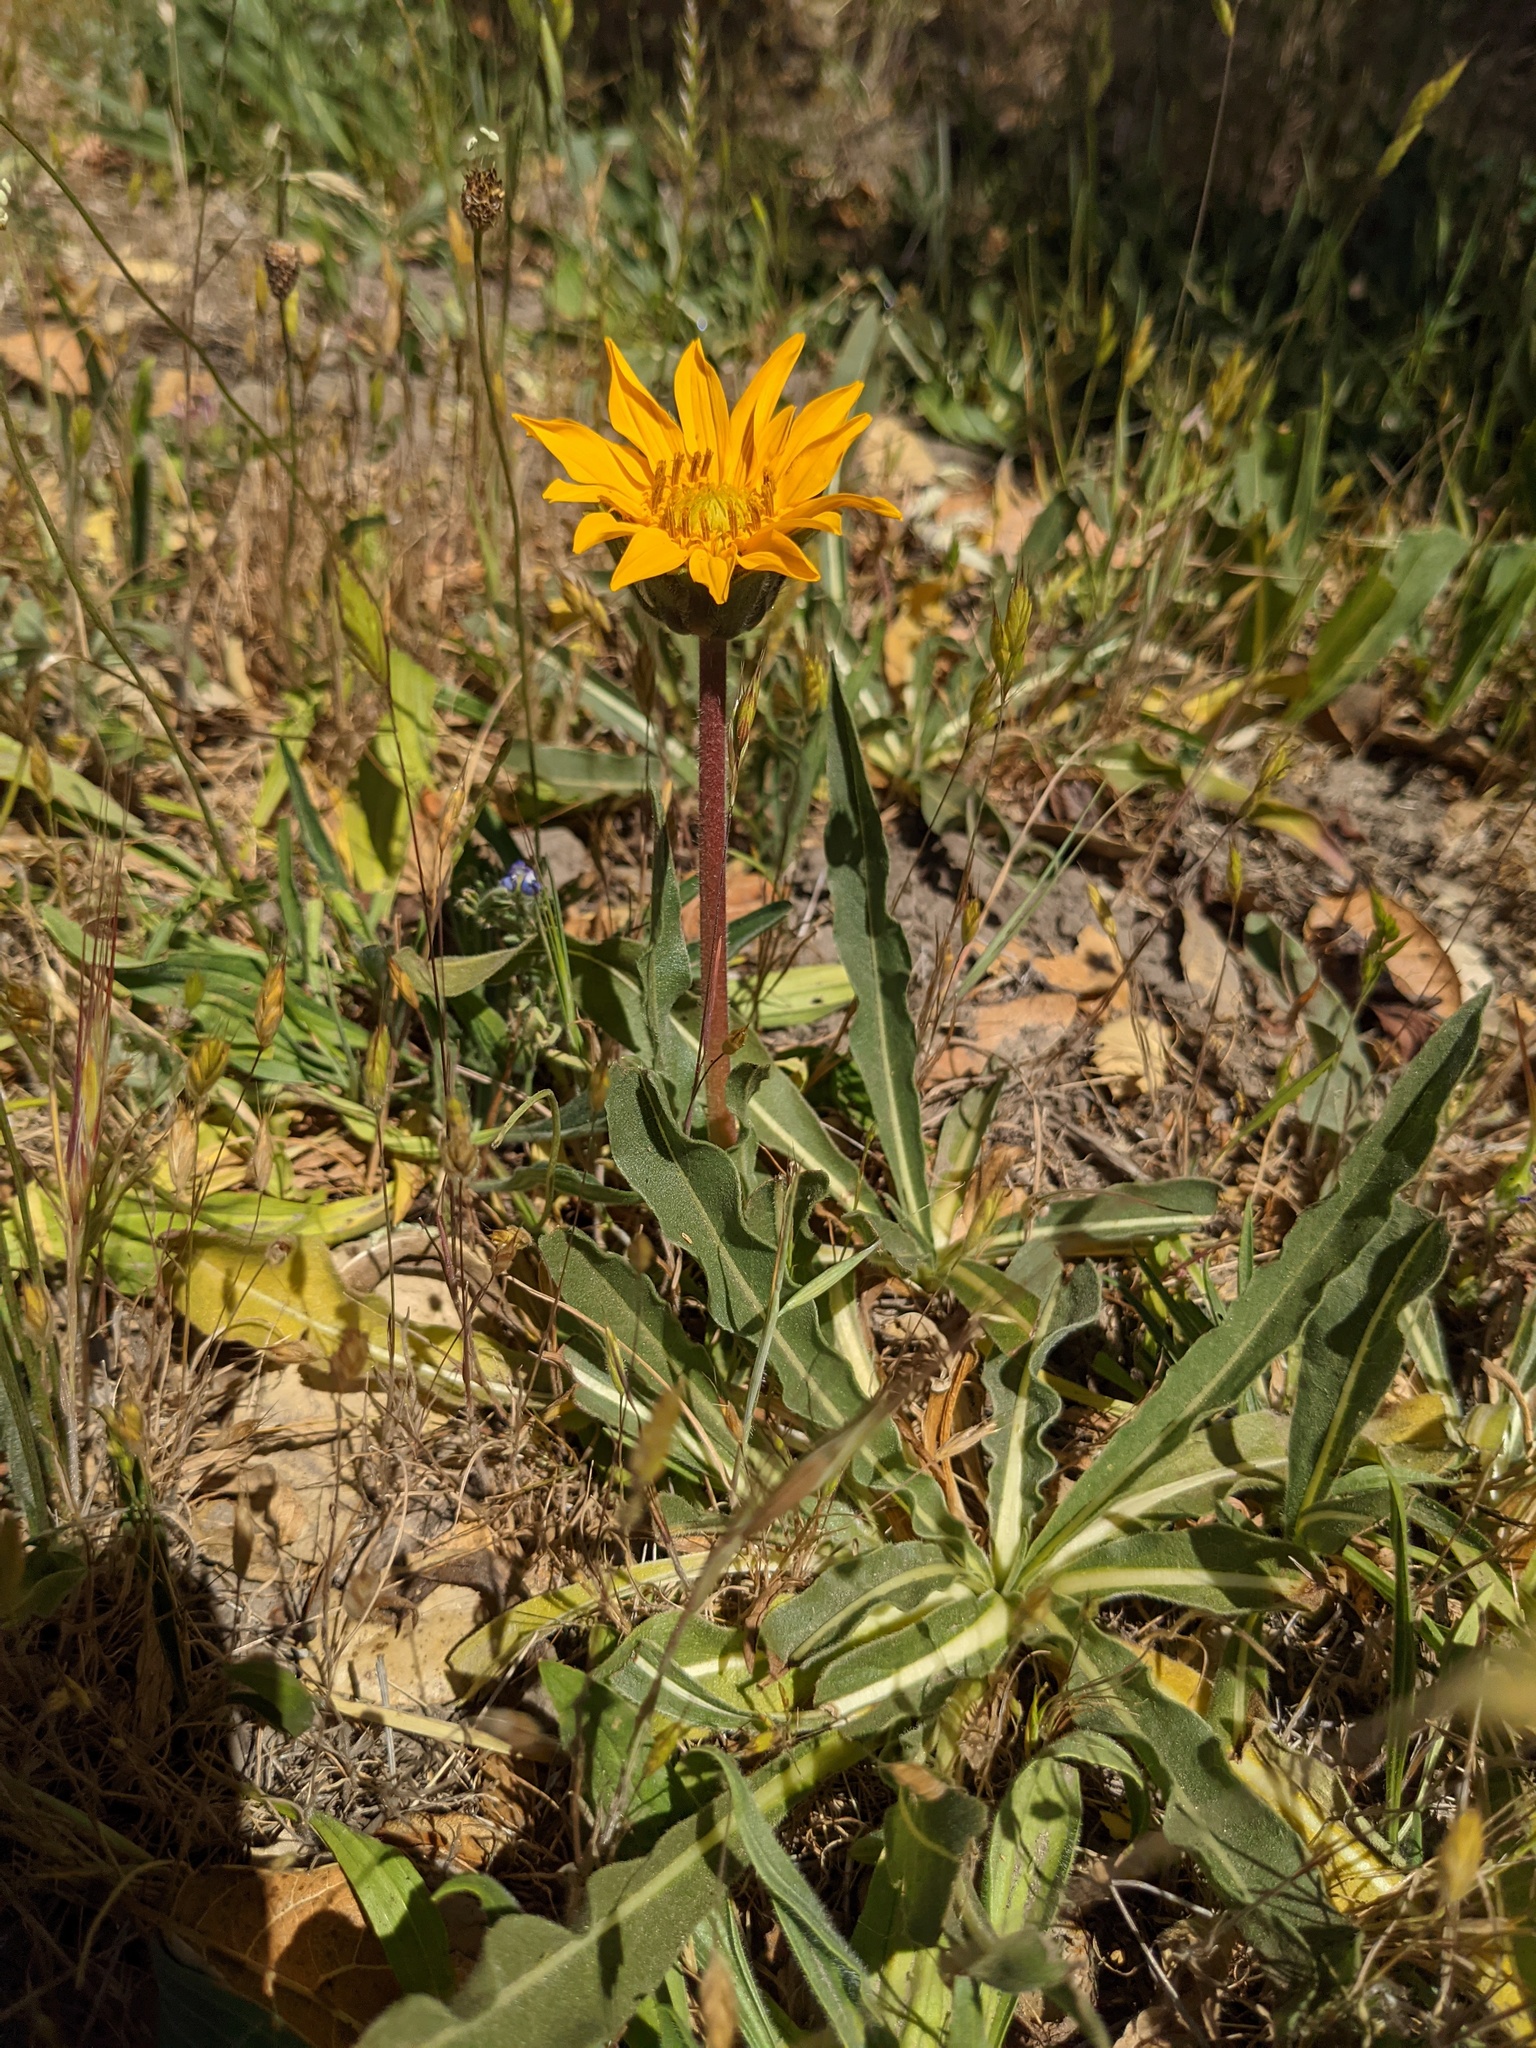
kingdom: Plantae
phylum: Tracheophyta
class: Magnoliopsida
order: Asterales
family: Asteraceae
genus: Wyethia
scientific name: Wyethia angustifolia
